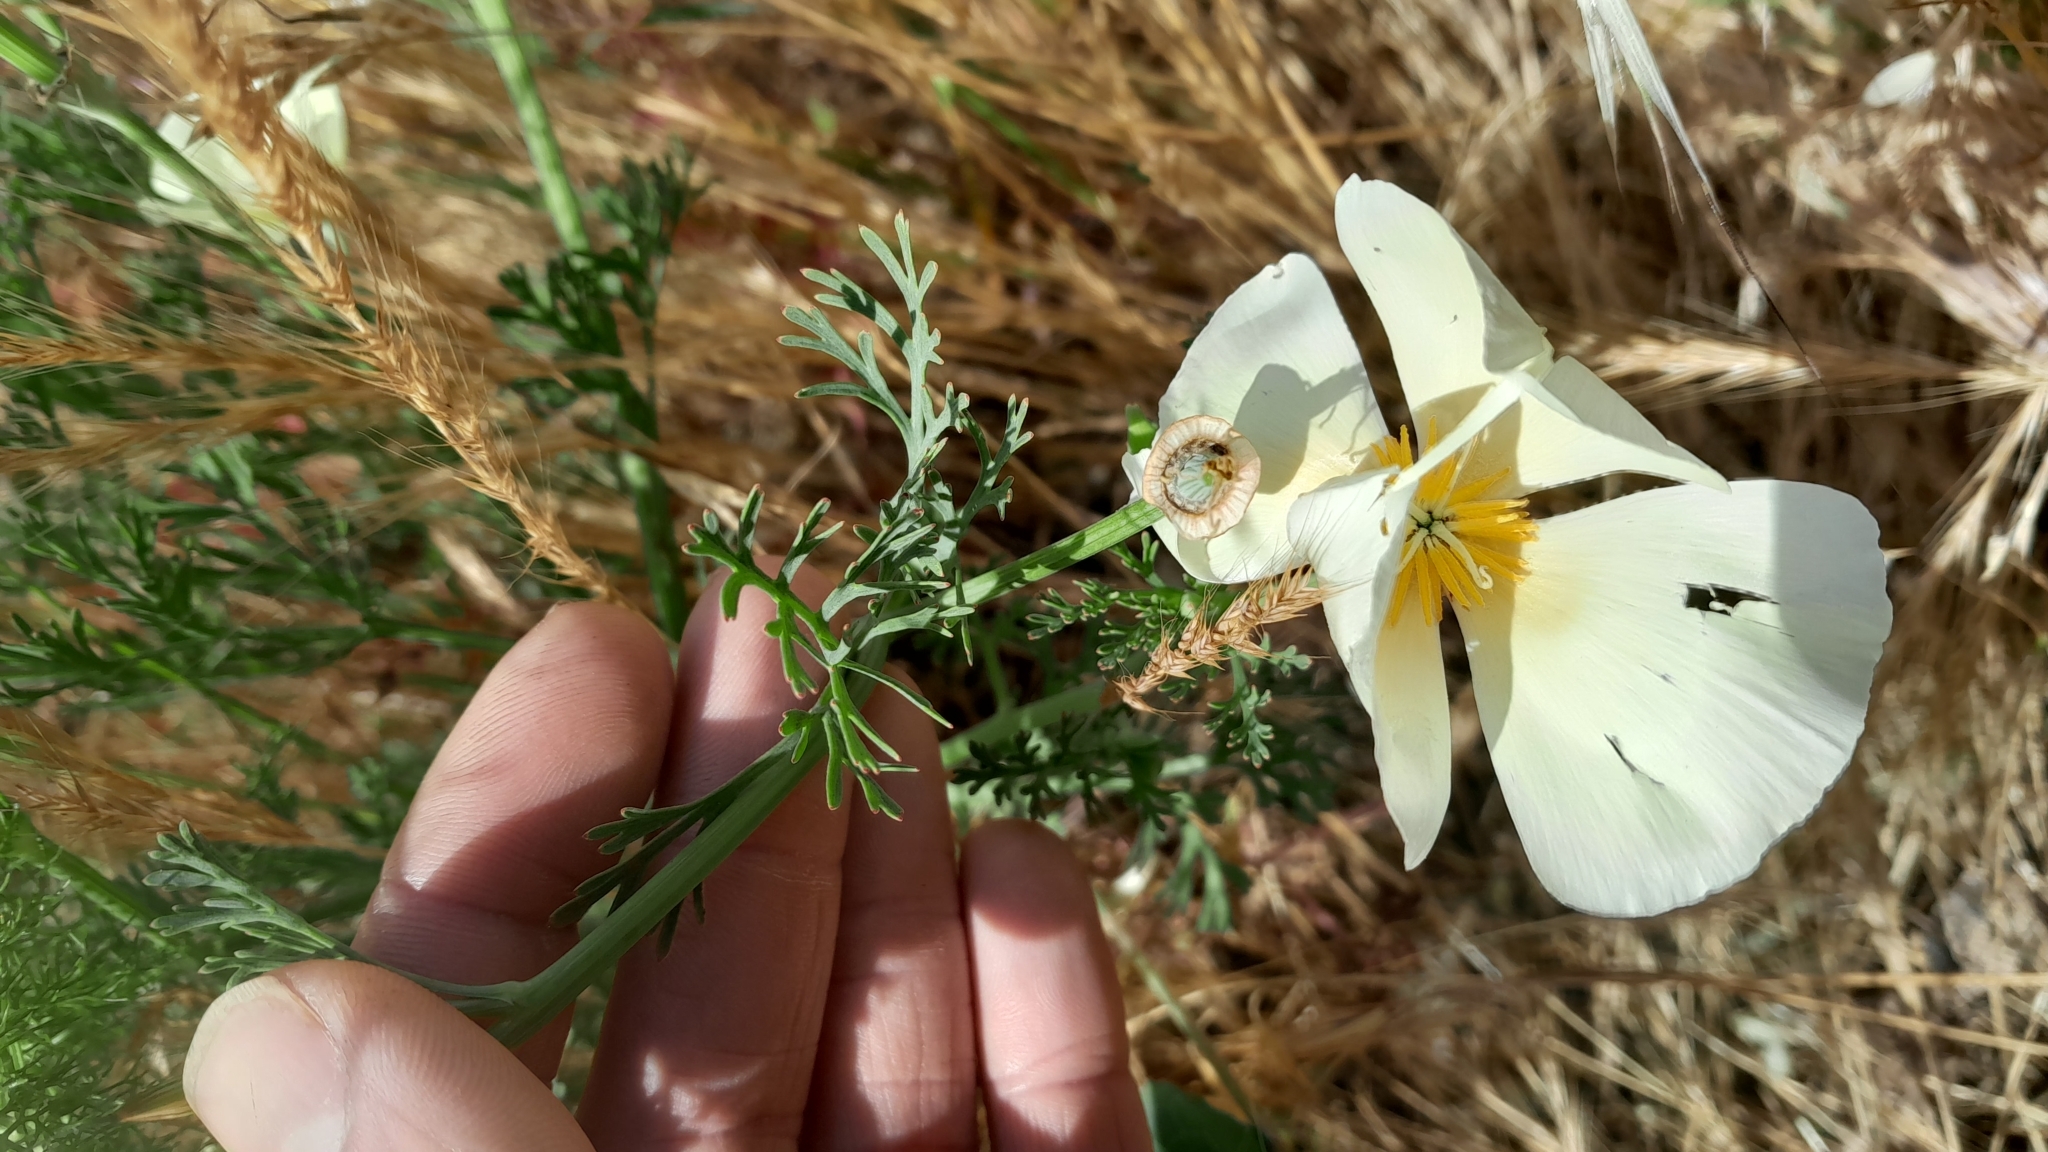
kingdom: Plantae
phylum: Tracheophyta
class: Magnoliopsida
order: Ranunculales
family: Papaveraceae
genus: Eschscholzia
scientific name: Eschscholzia californica
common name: California poppy
